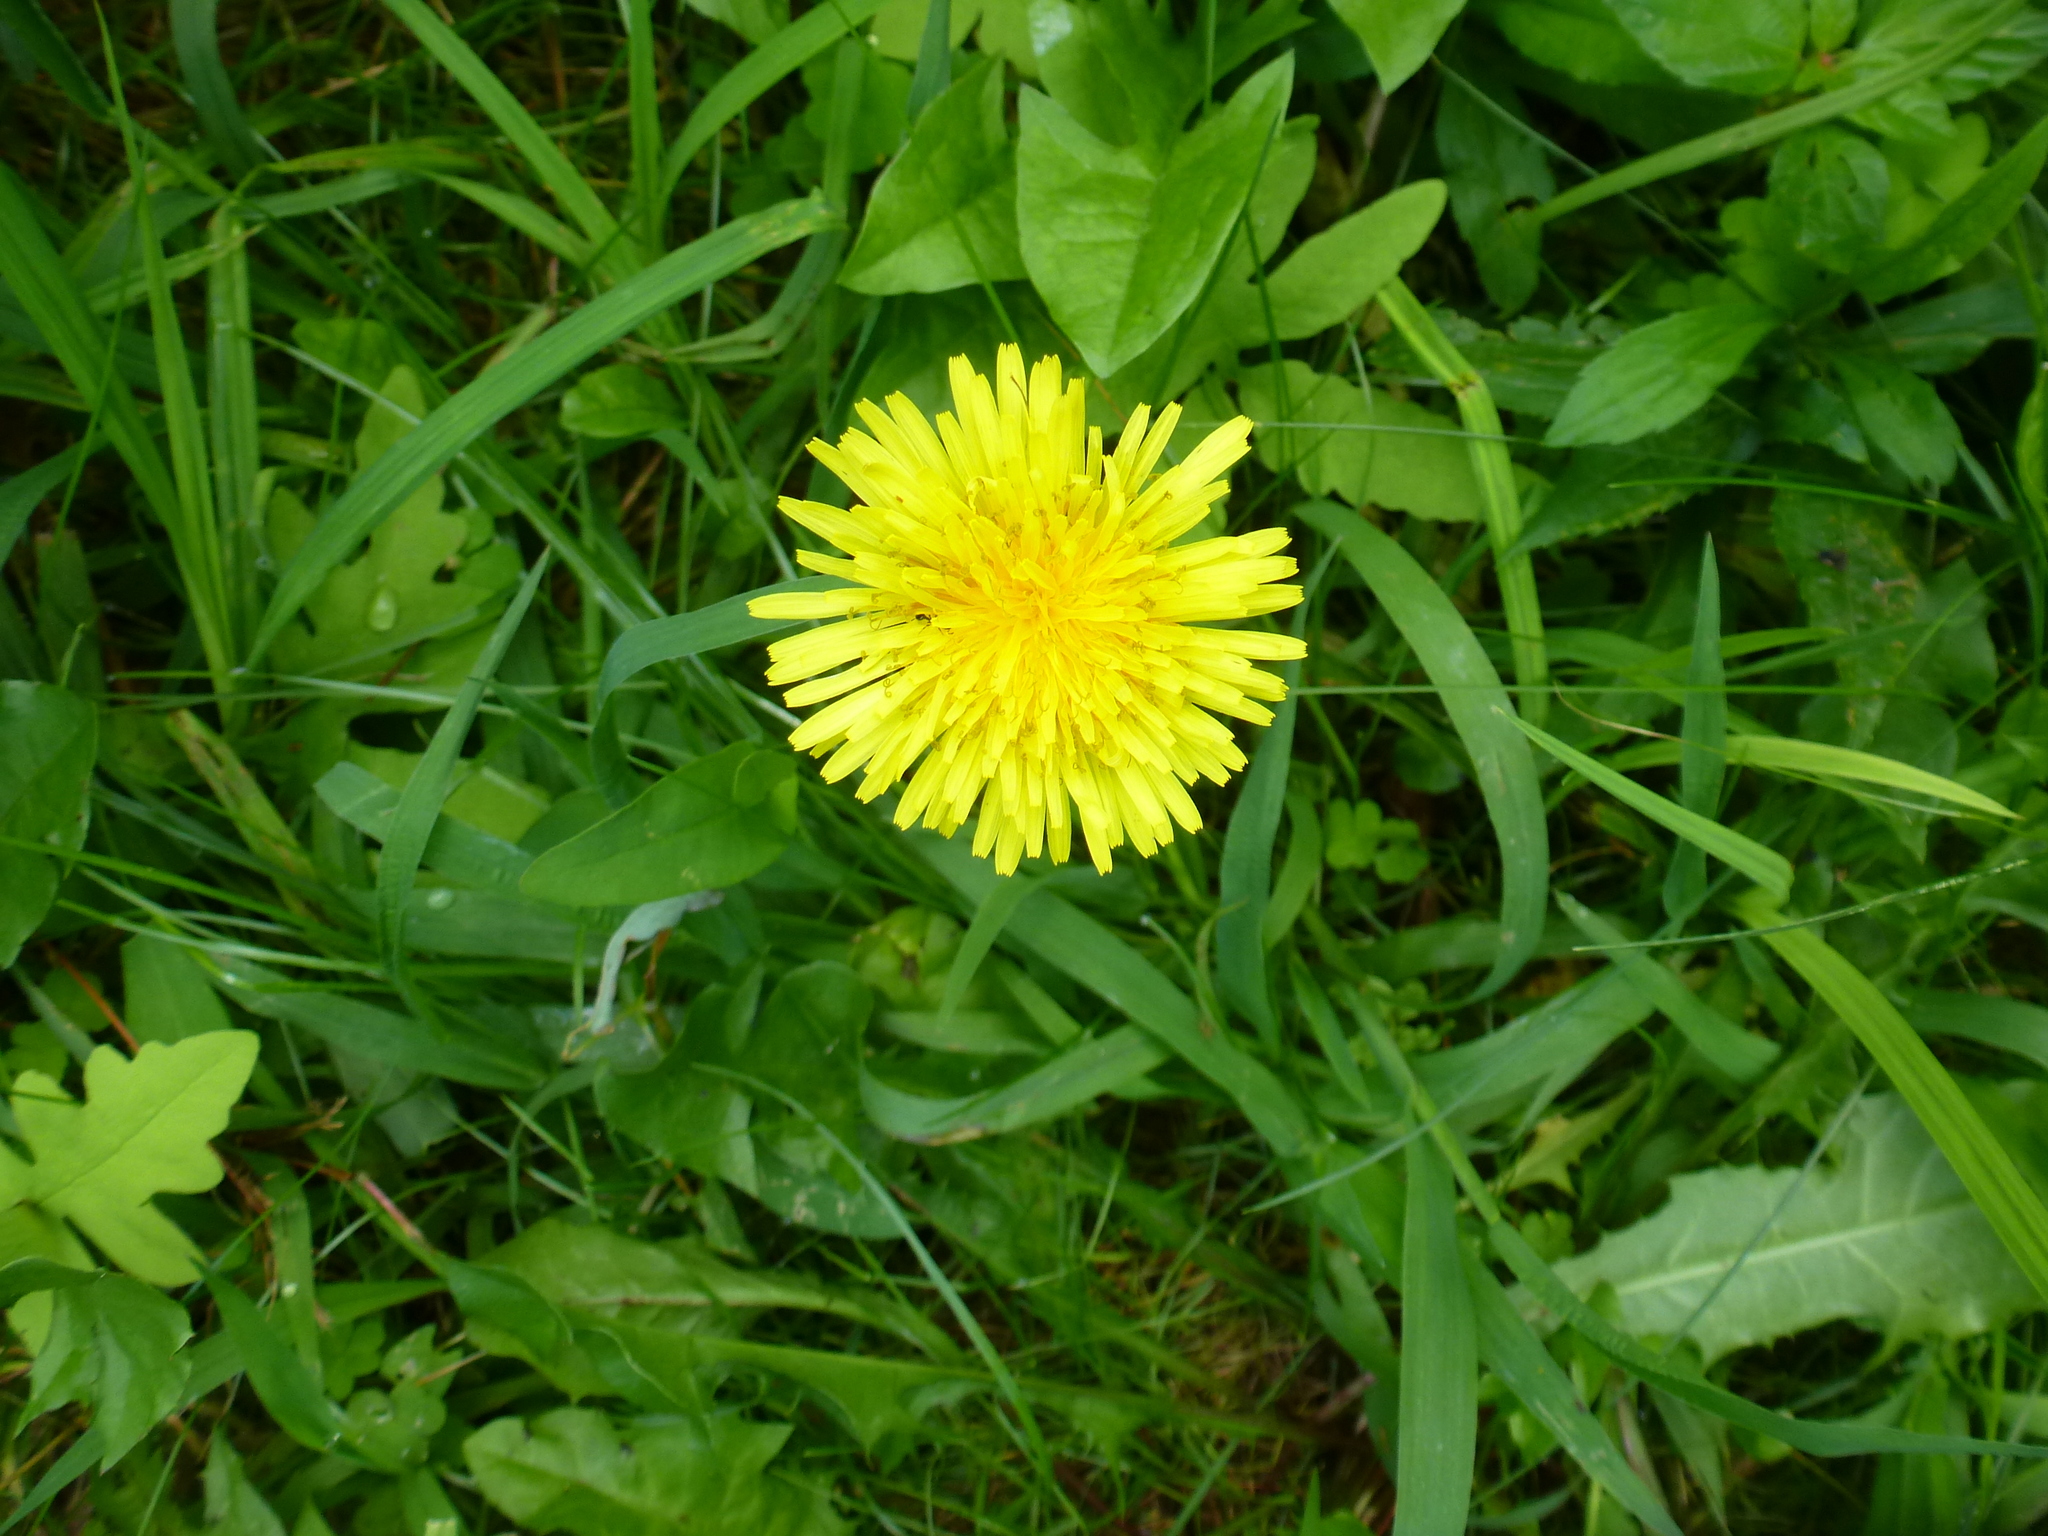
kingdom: Plantae
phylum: Tracheophyta
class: Magnoliopsida
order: Asterales
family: Asteraceae
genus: Taraxacum
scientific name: Taraxacum officinale
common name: Common dandelion
